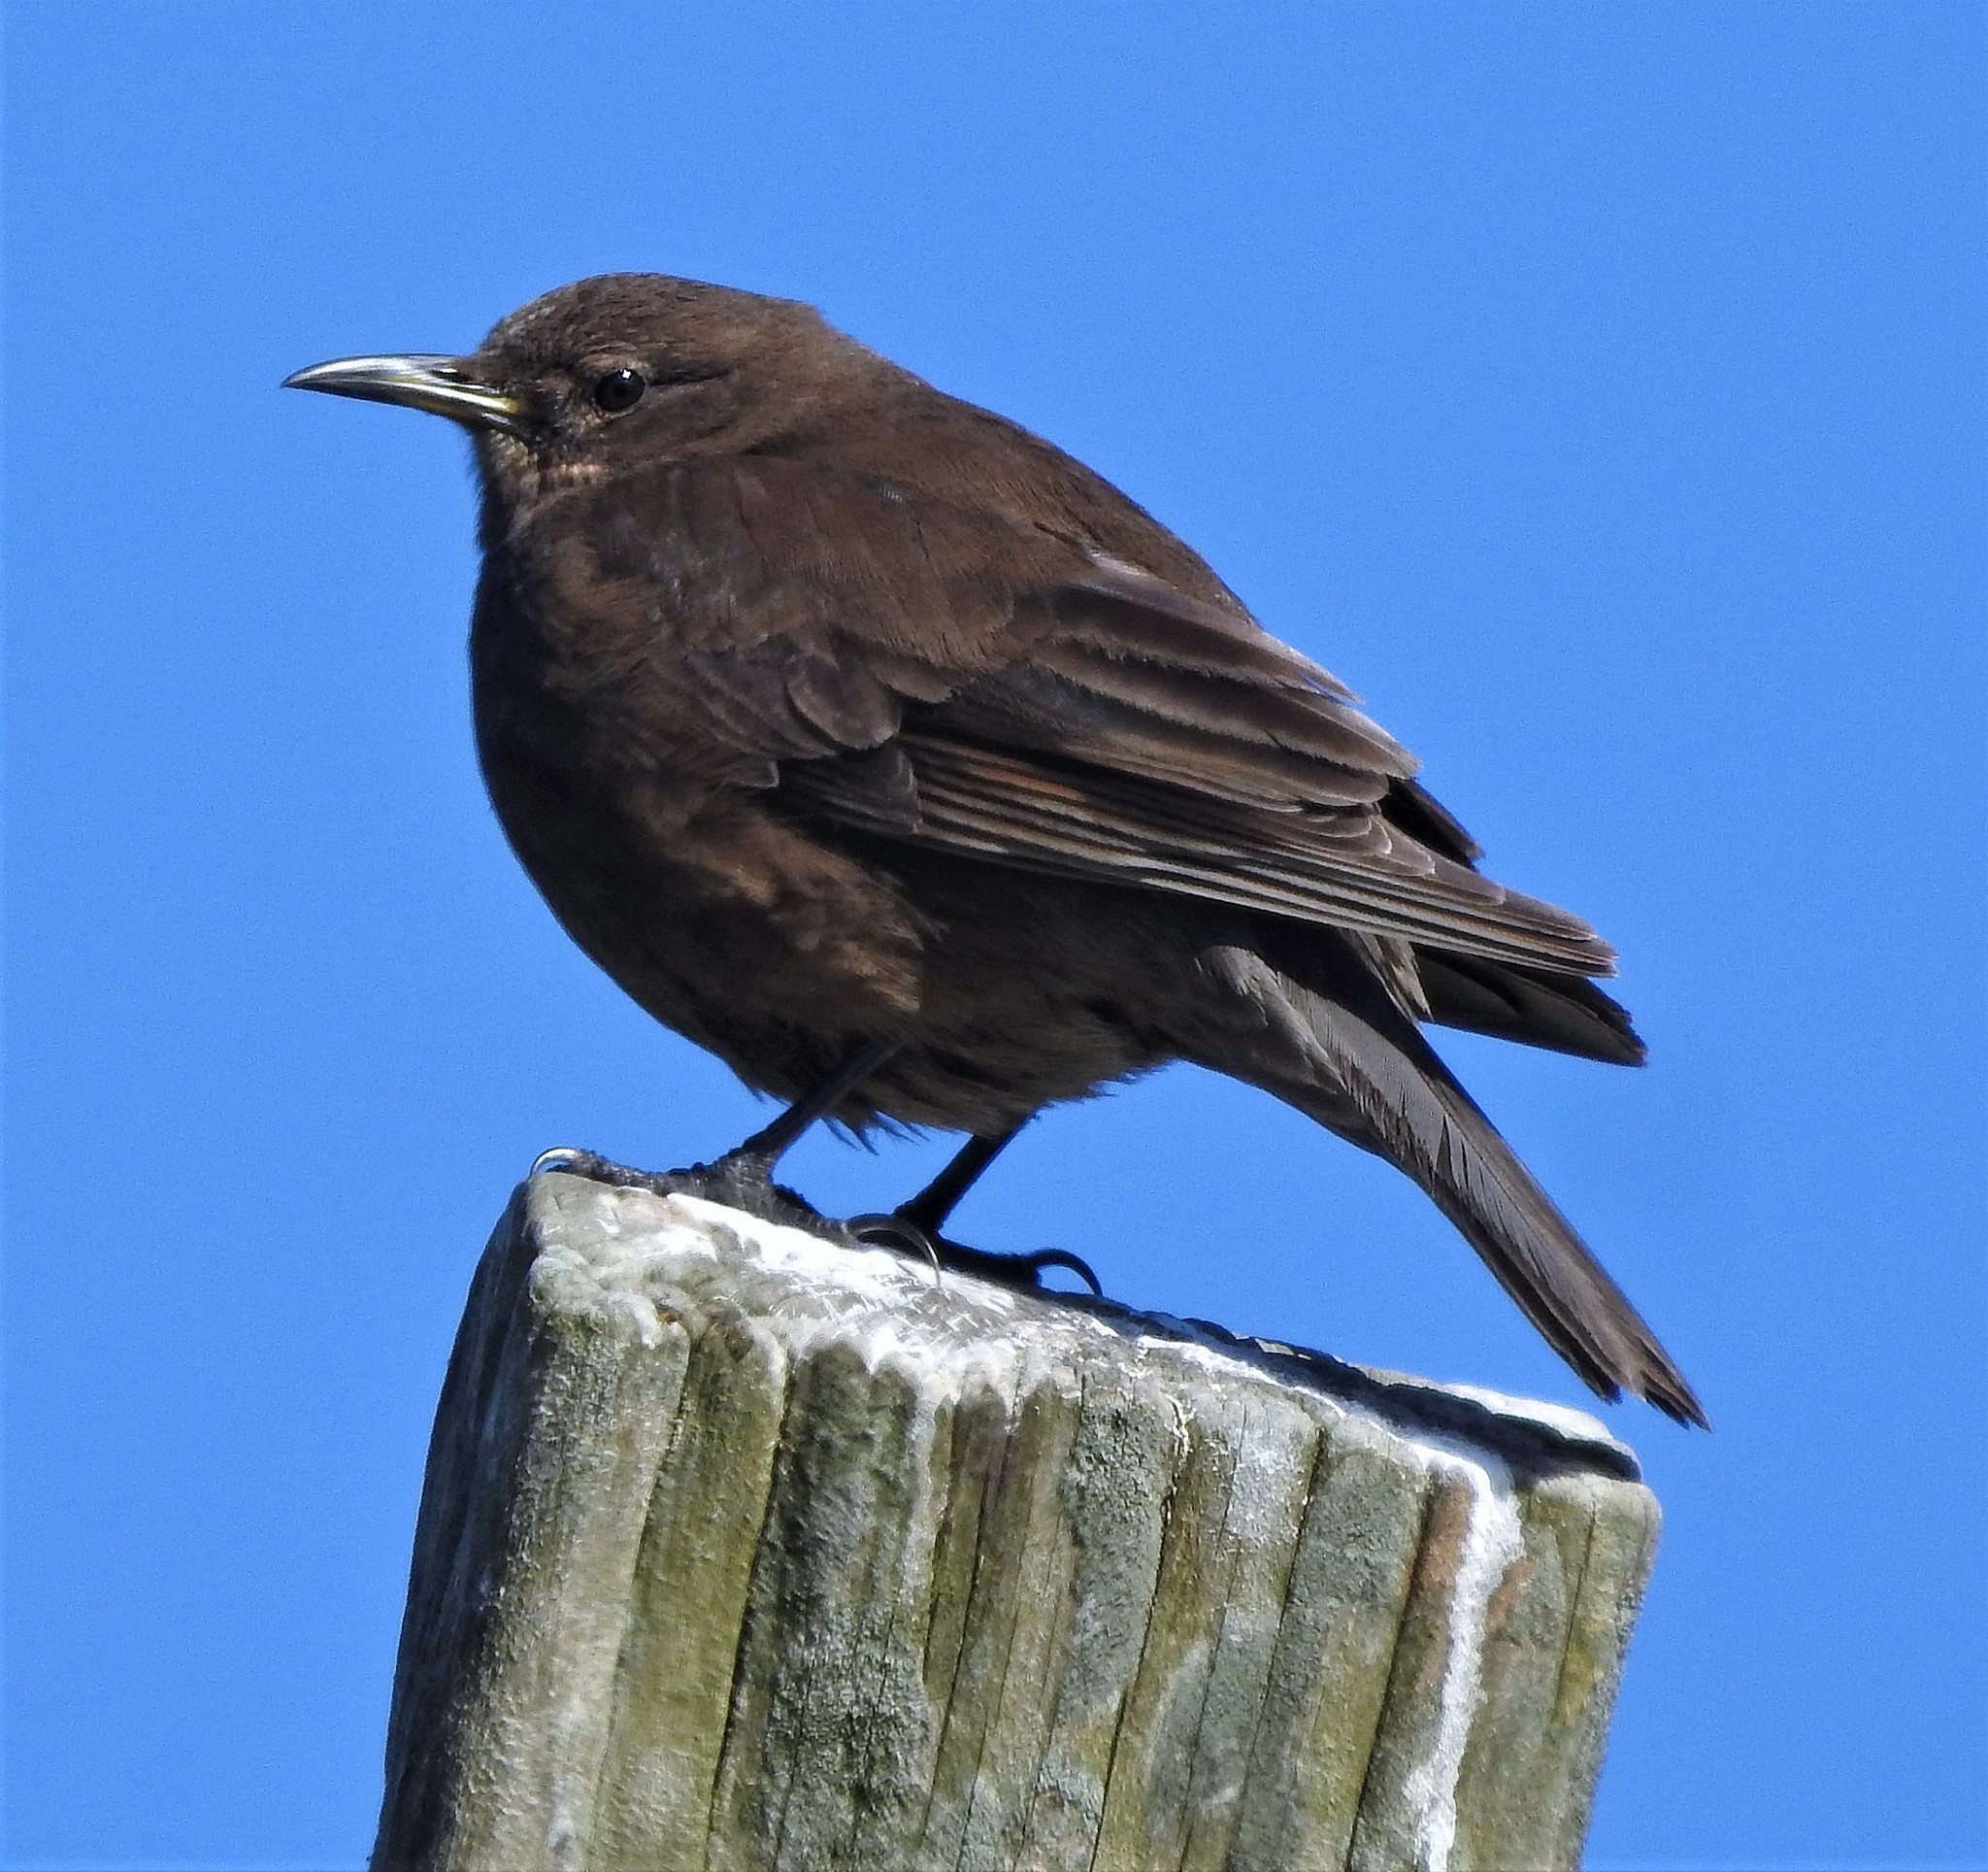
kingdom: Animalia
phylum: Chordata
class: Aves
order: Passeriformes
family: Furnariidae
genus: Cinclodes
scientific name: Cinclodes antarcticus
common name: Blackish cinclodes
